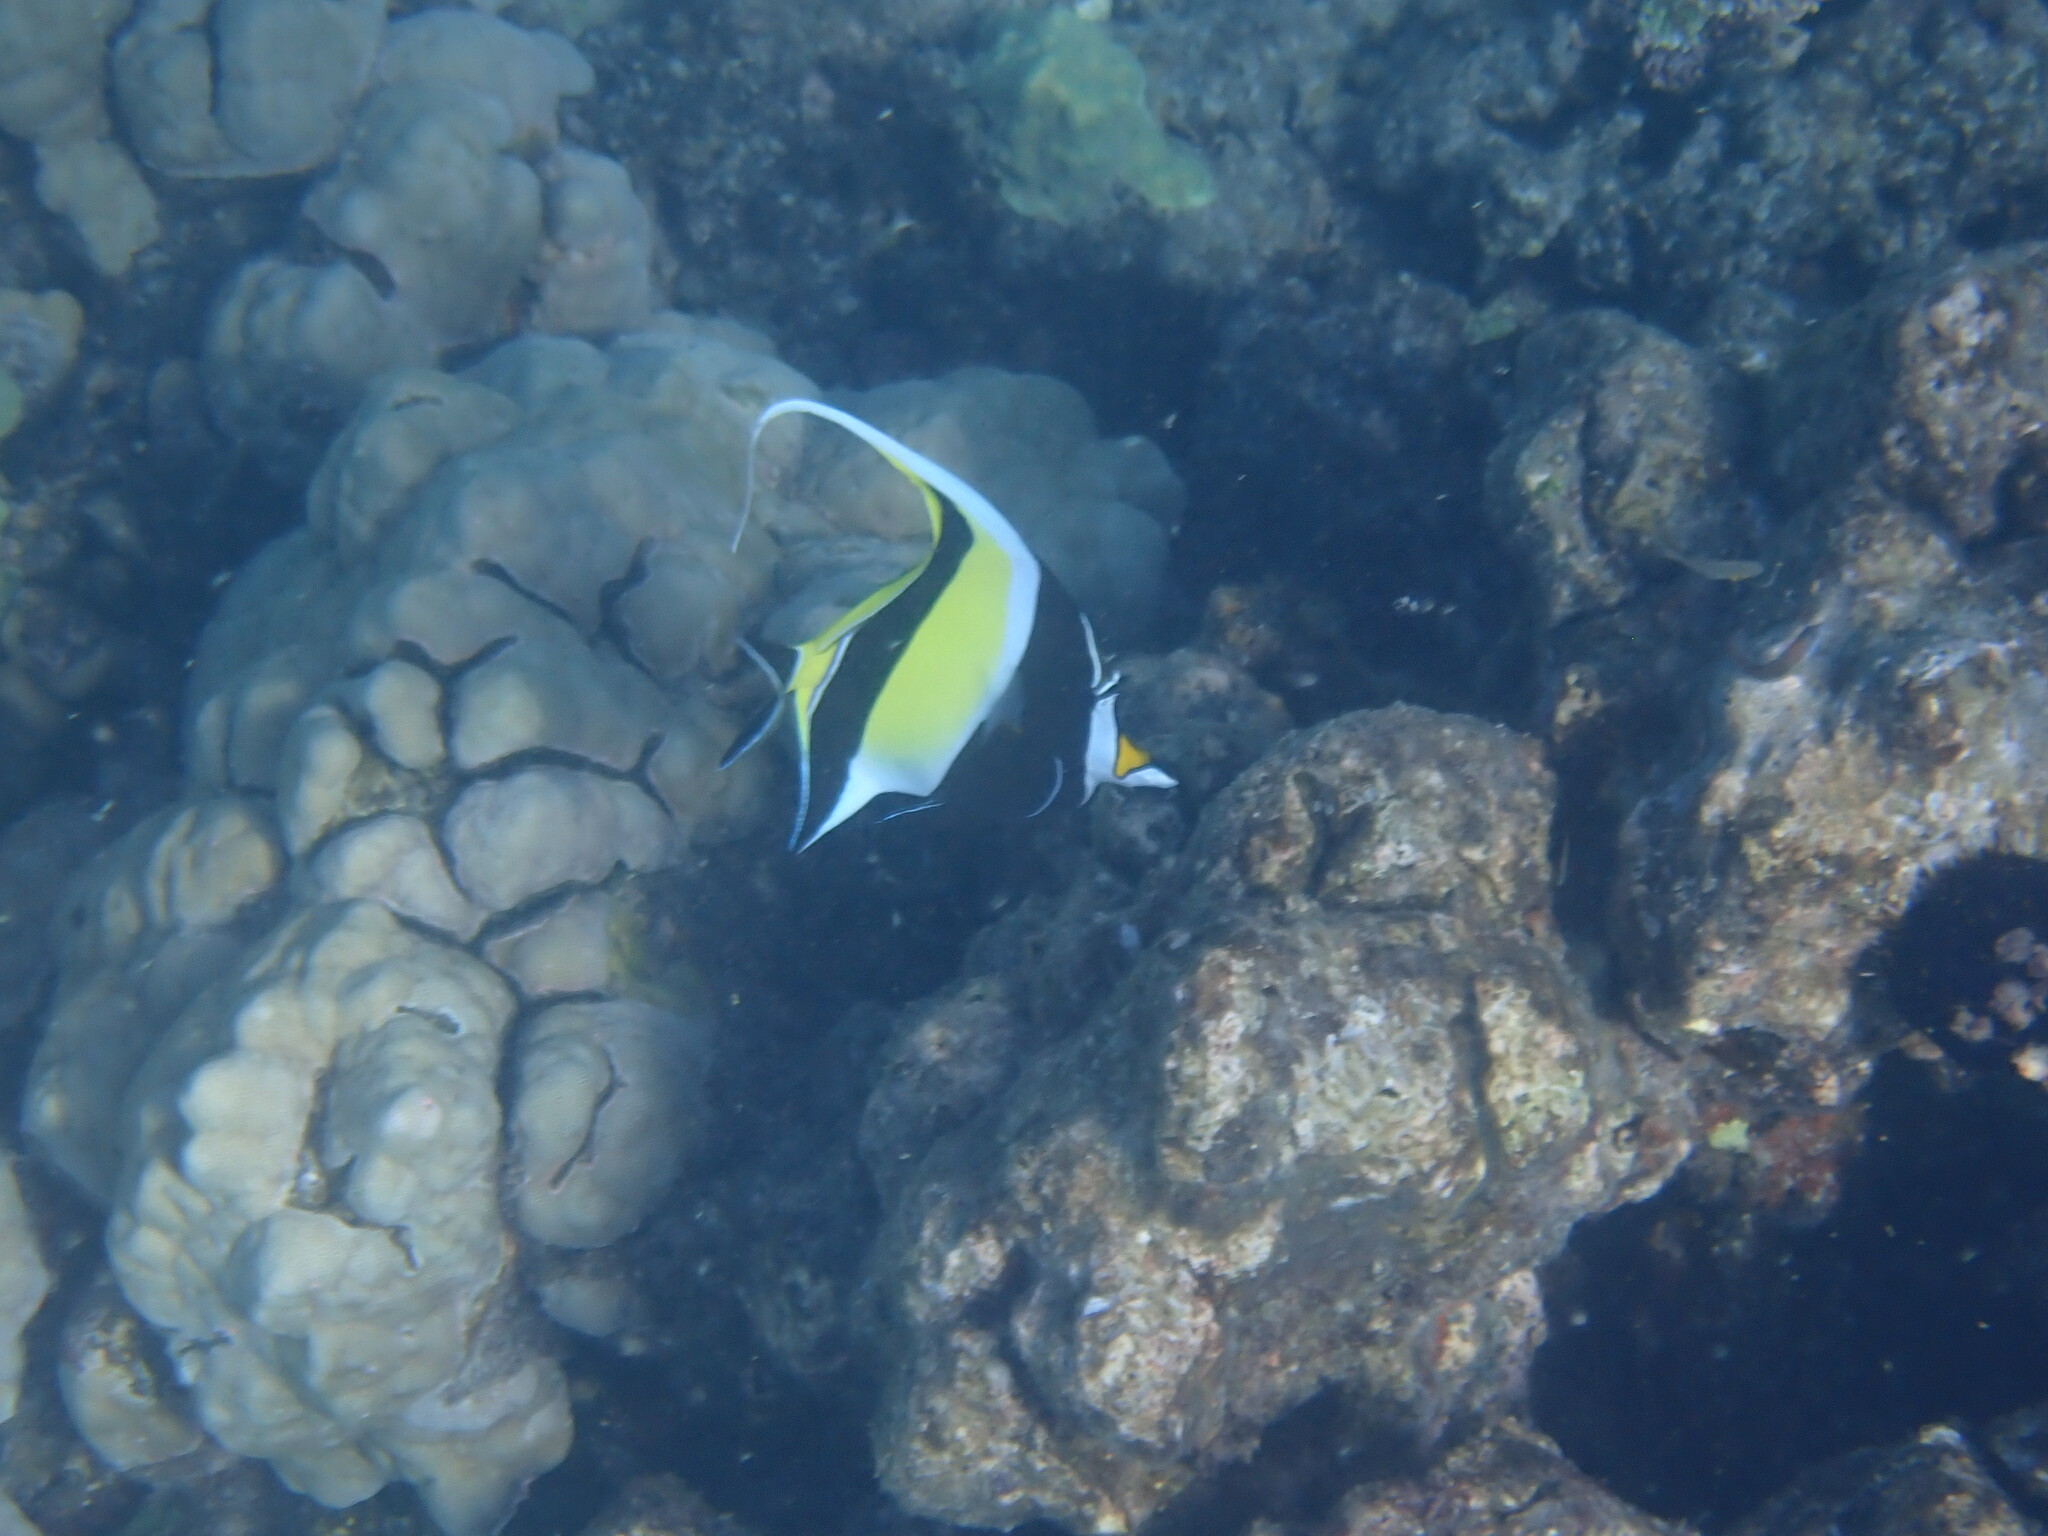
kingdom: Animalia
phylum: Chordata
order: Perciformes
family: Zanclidae
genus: Zanclus
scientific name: Zanclus cornutus
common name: Moorish idol
